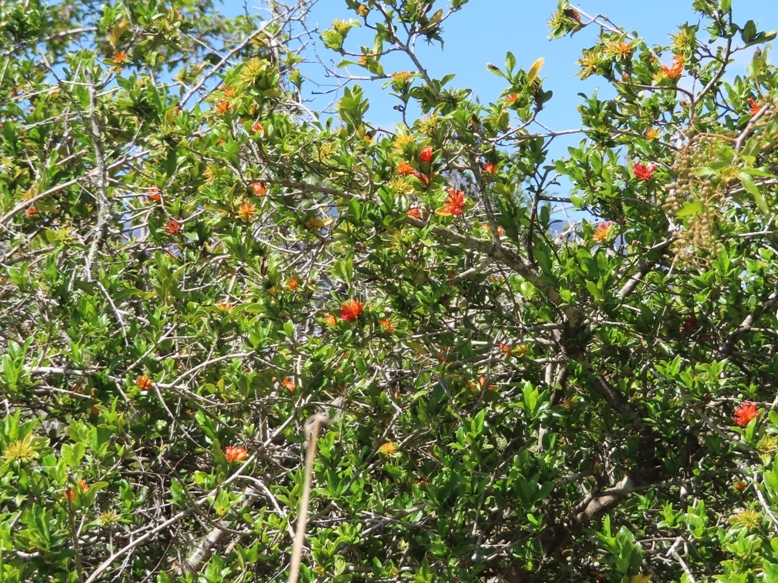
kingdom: Plantae
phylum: Tracheophyta
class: Magnoliopsida
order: Gentianales
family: Rubiaceae
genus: Burchellia
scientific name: Burchellia bubalina
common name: Wild pomegranate
